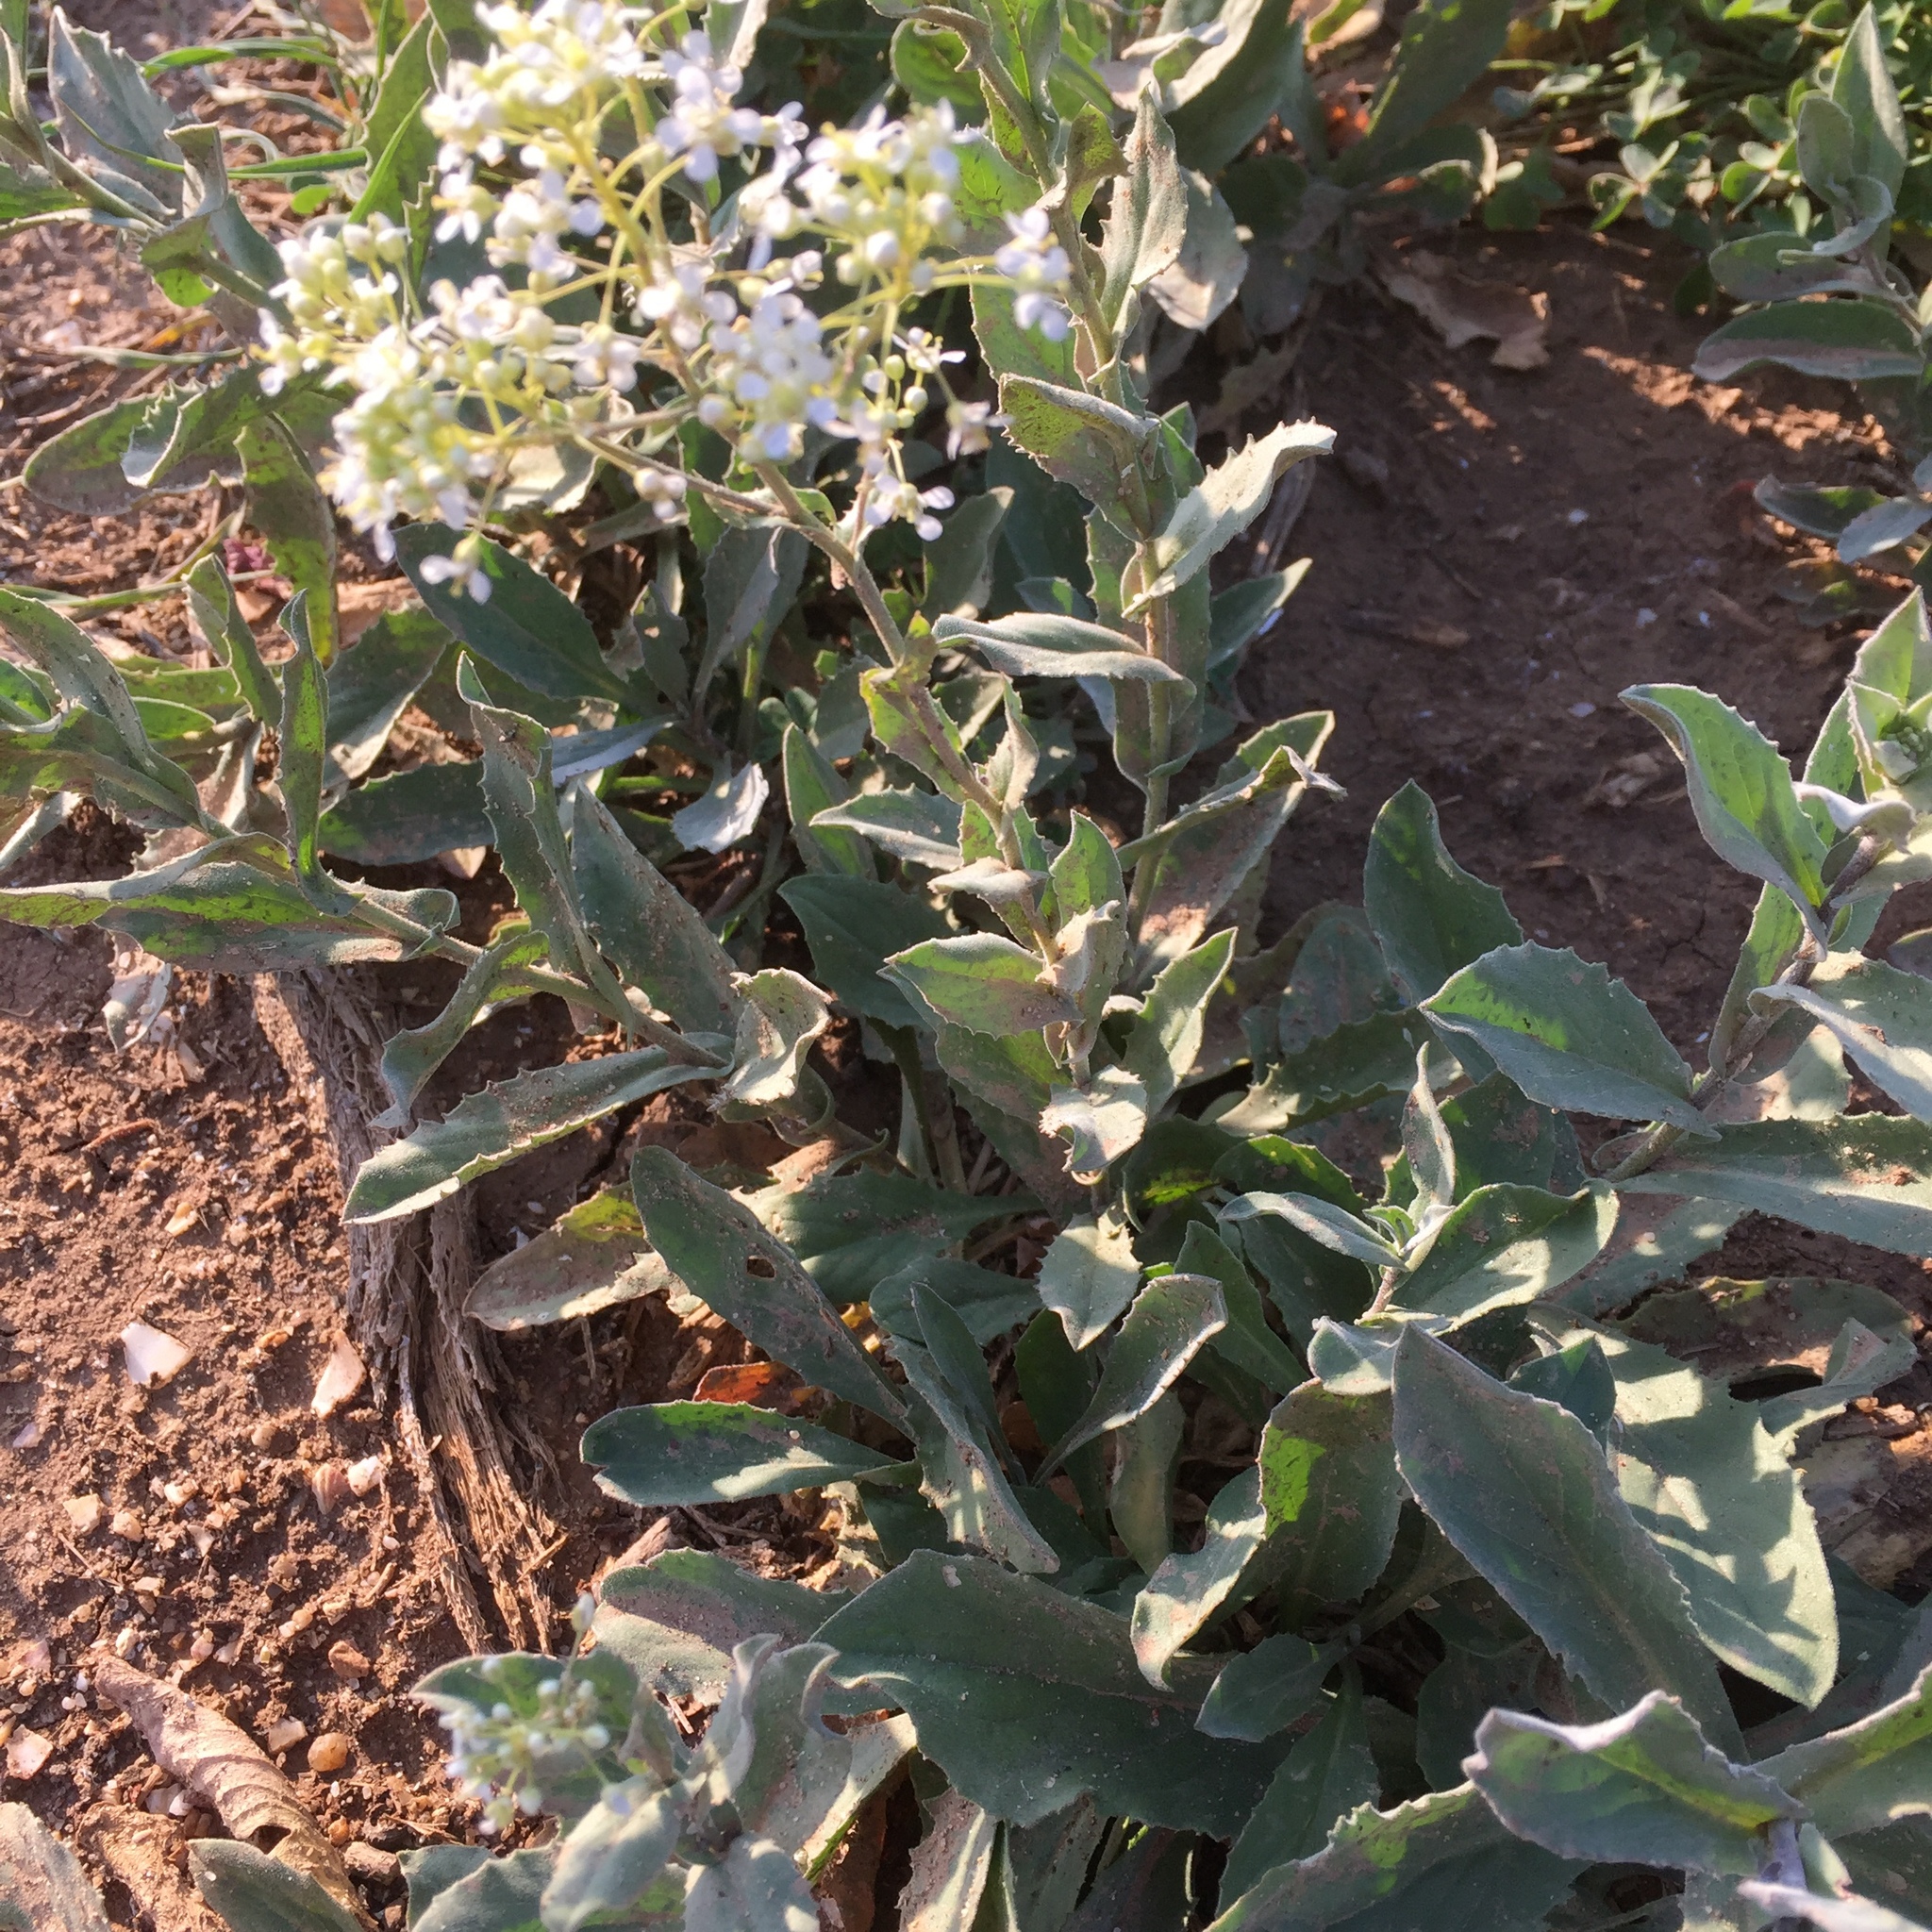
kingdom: Plantae
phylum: Tracheophyta
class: Magnoliopsida
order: Brassicales
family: Brassicaceae
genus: Lepidium
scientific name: Lepidium draba
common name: Hoary cress
